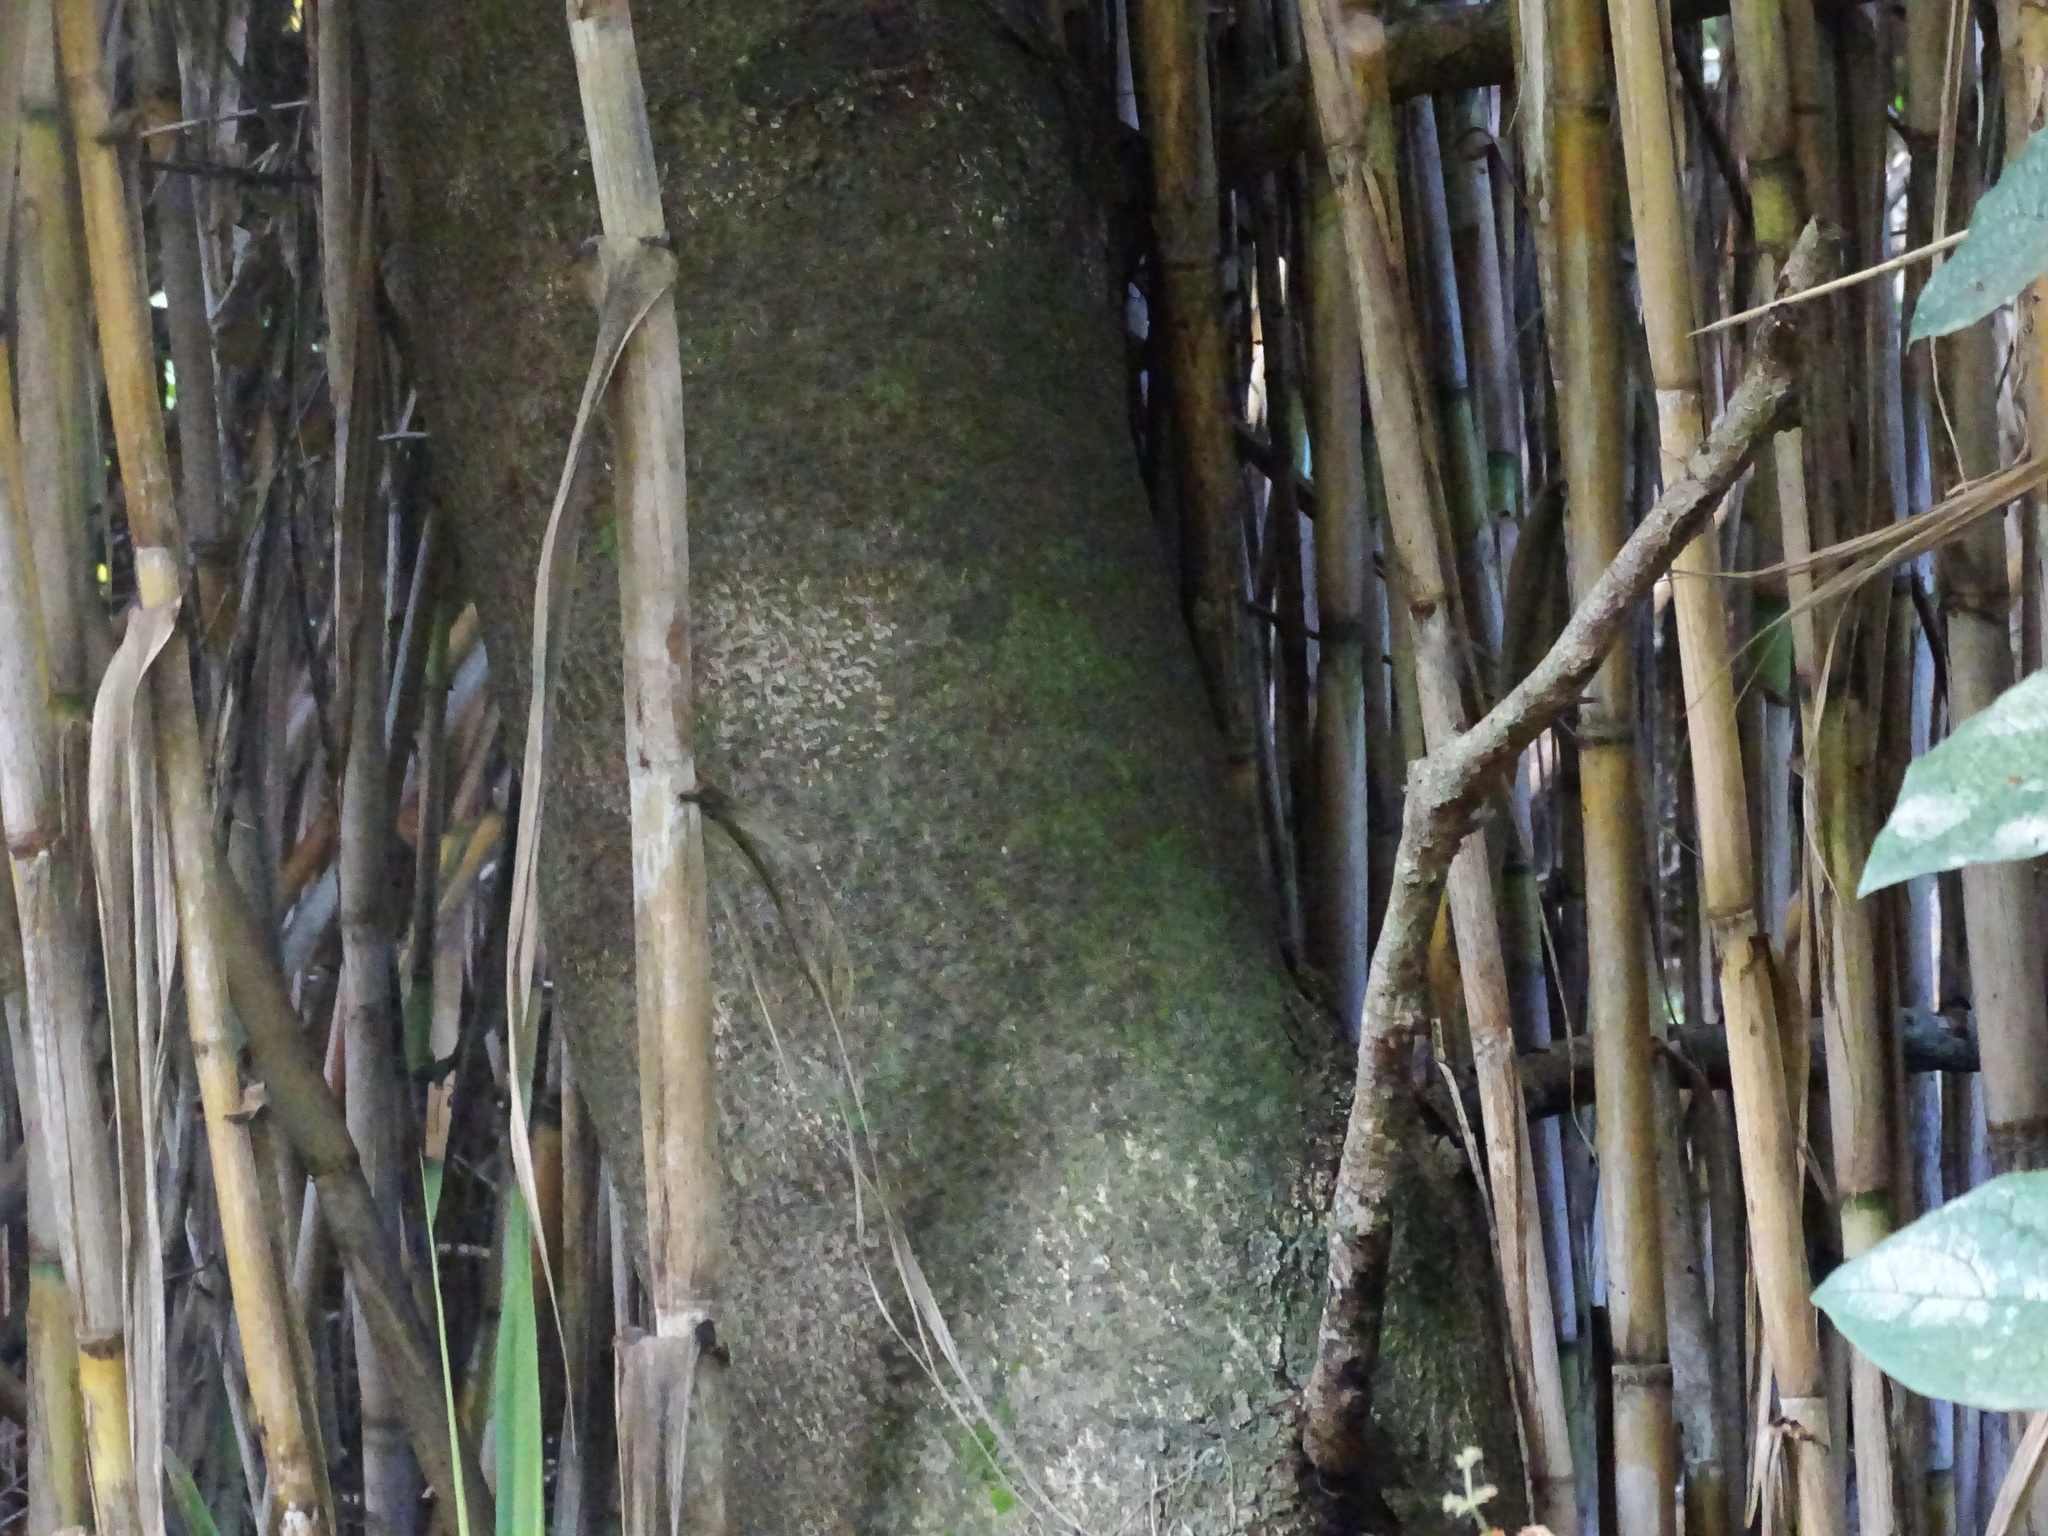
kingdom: Plantae
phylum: Tracheophyta
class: Magnoliopsida
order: Laurales
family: Lauraceae
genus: Apollonias
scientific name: Apollonias barbujana
